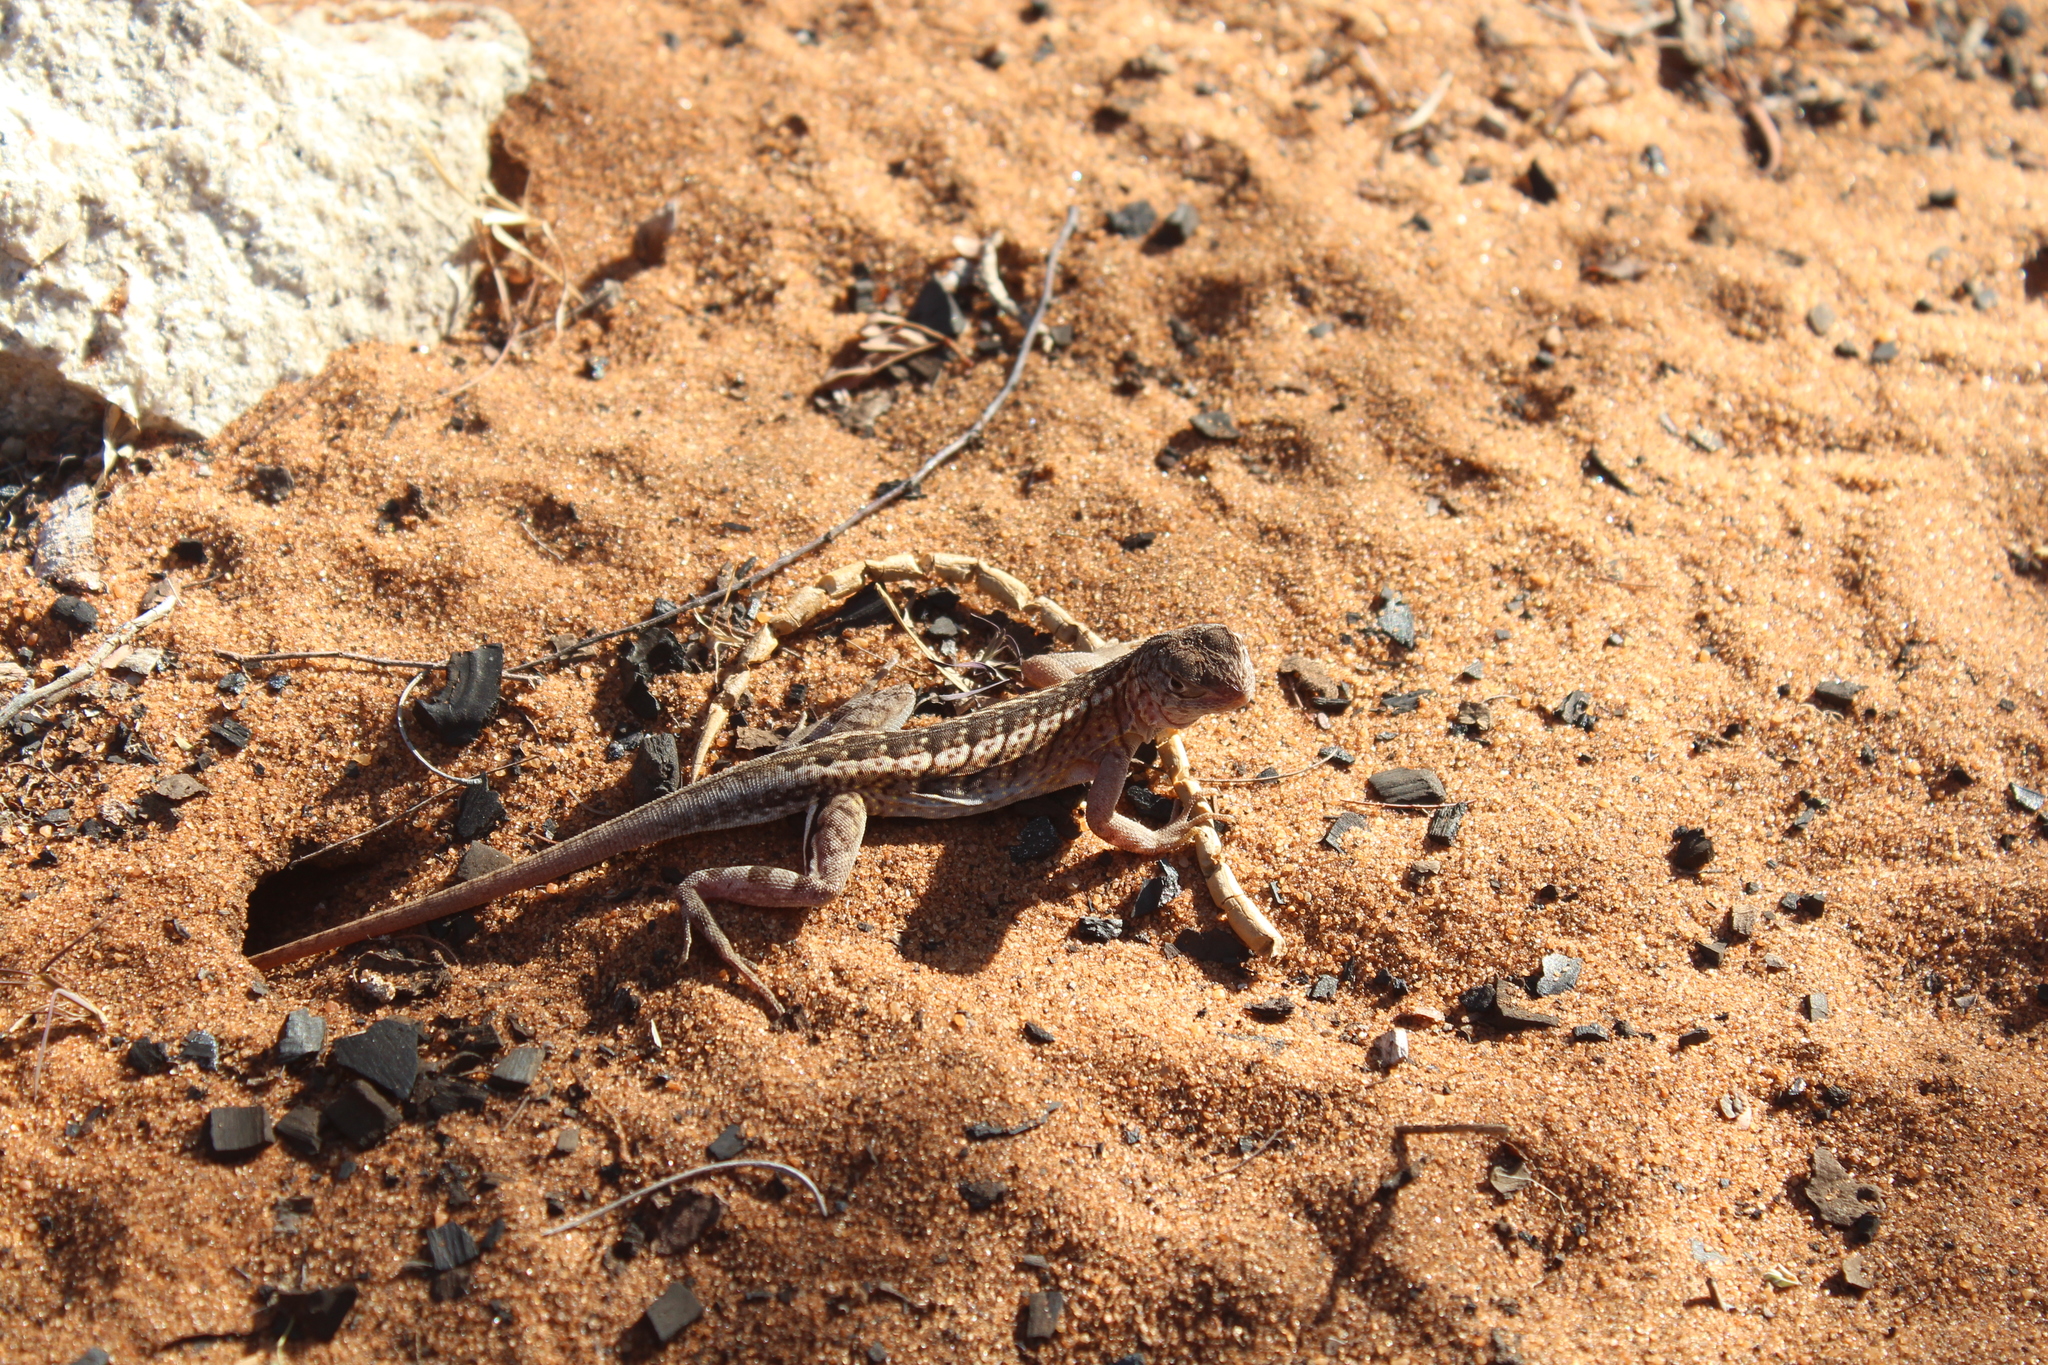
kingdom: Animalia
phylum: Chordata
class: Squamata
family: Opluridae
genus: Chalarodon
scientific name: Chalarodon madagascariensis
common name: Madagascar iguana
